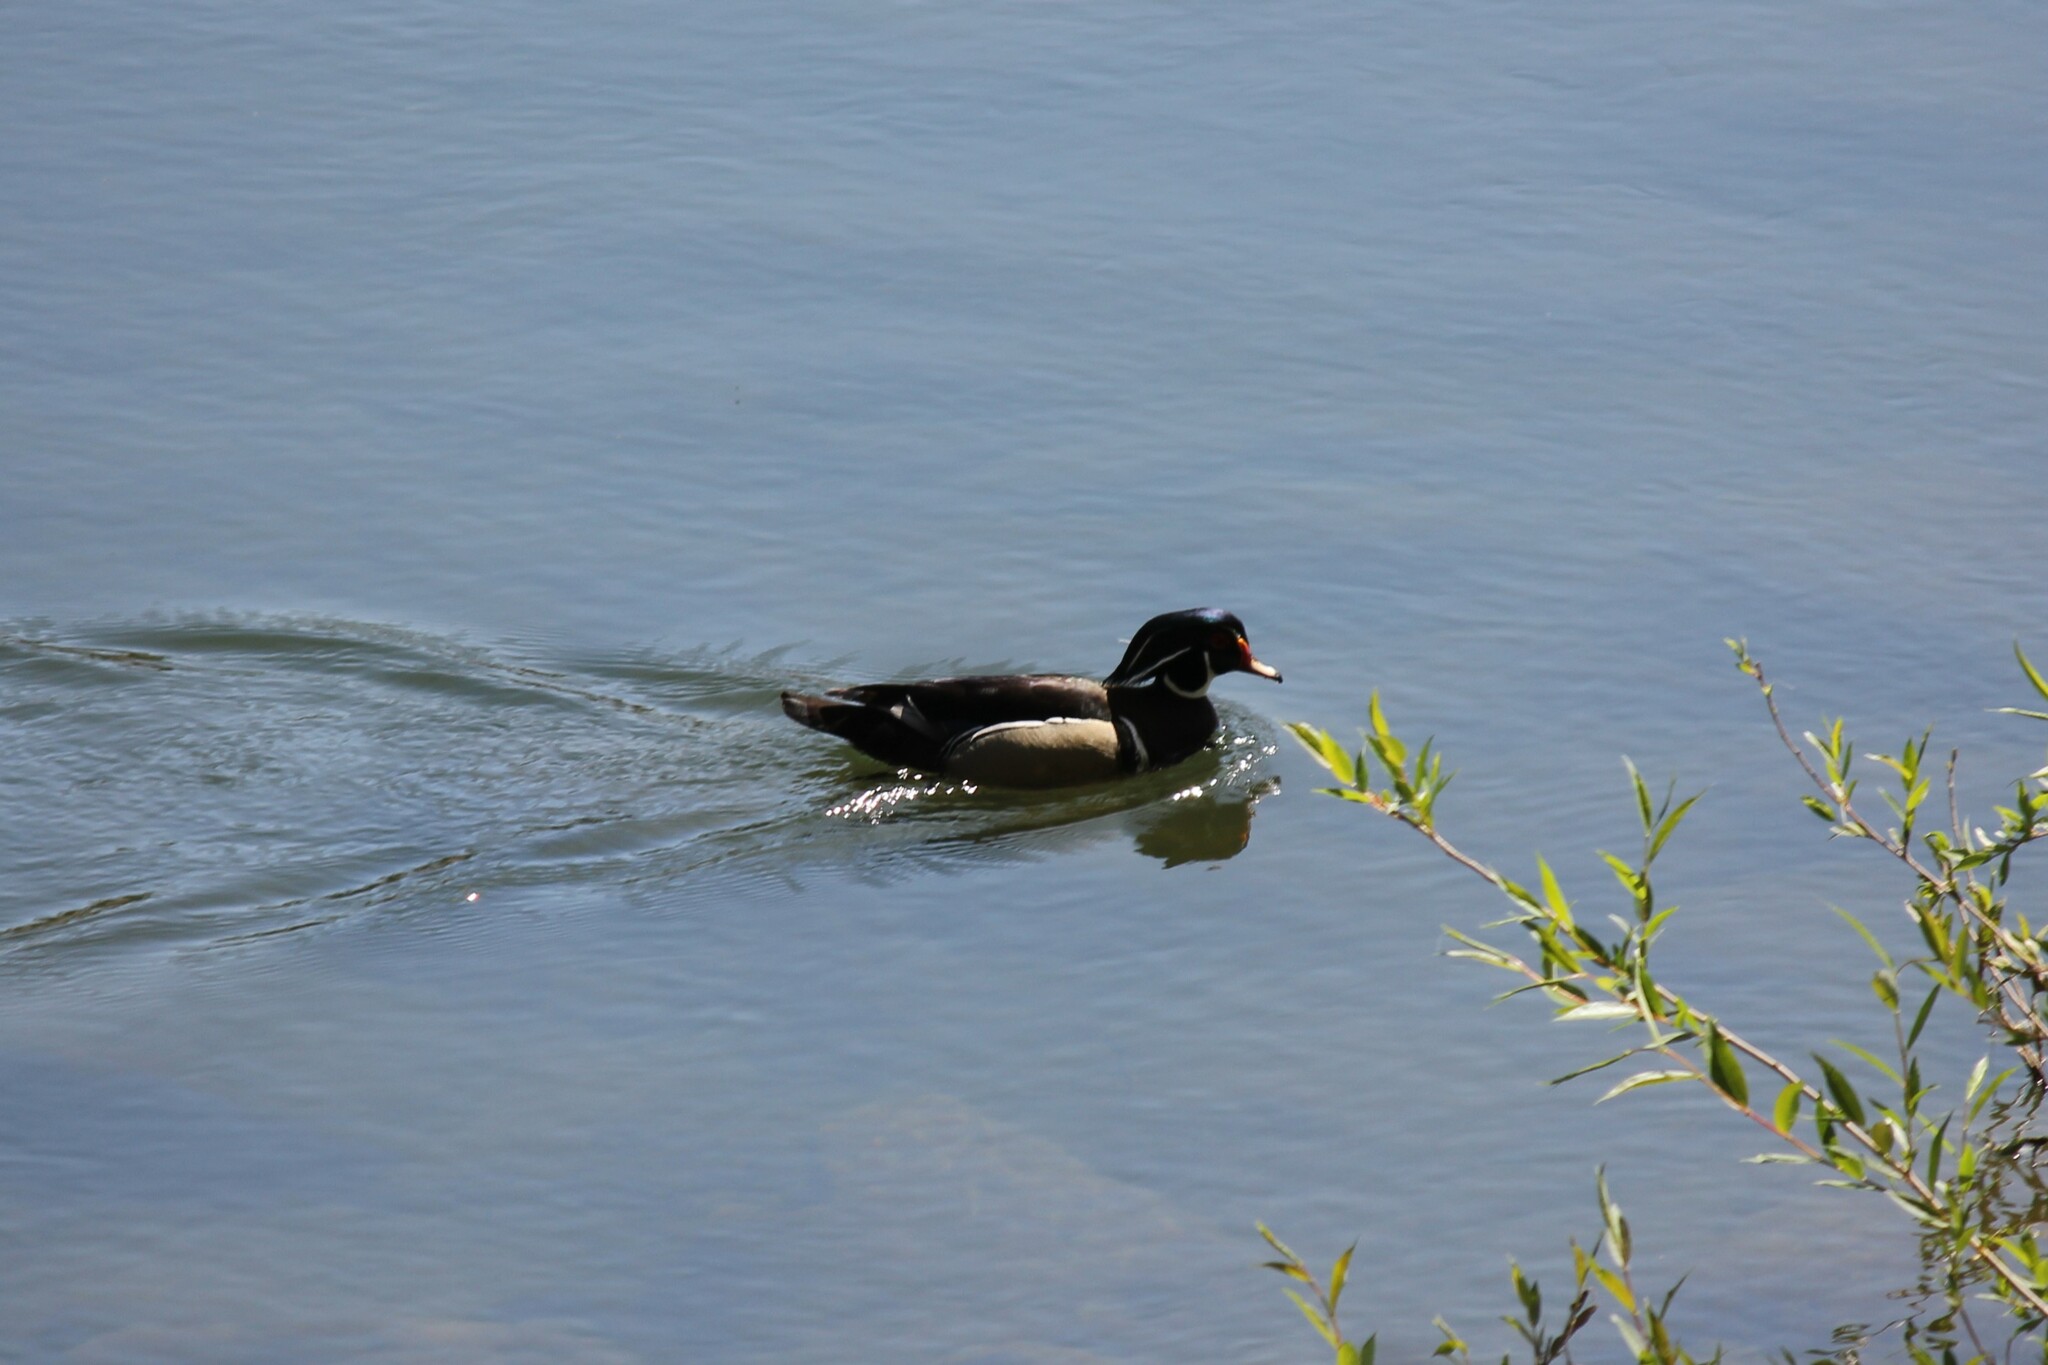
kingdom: Animalia
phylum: Chordata
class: Aves
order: Anseriformes
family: Anatidae
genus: Aix
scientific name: Aix sponsa
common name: Wood duck
